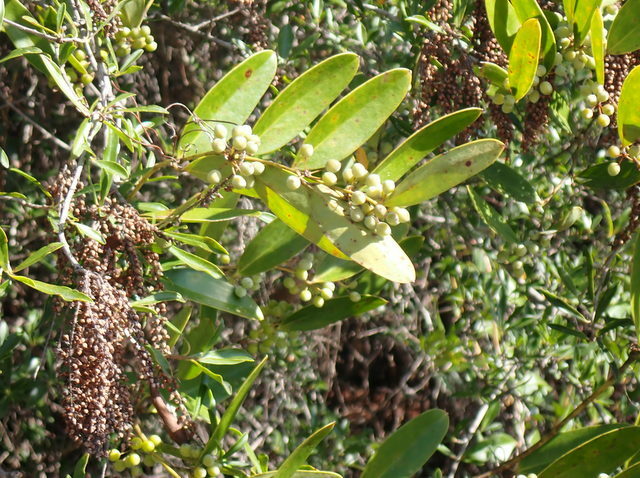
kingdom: Plantae
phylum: Tracheophyta
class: Liliopsida
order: Liliales
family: Smilacaceae
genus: Smilax
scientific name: Smilax laurifolia
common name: Bamboovine
